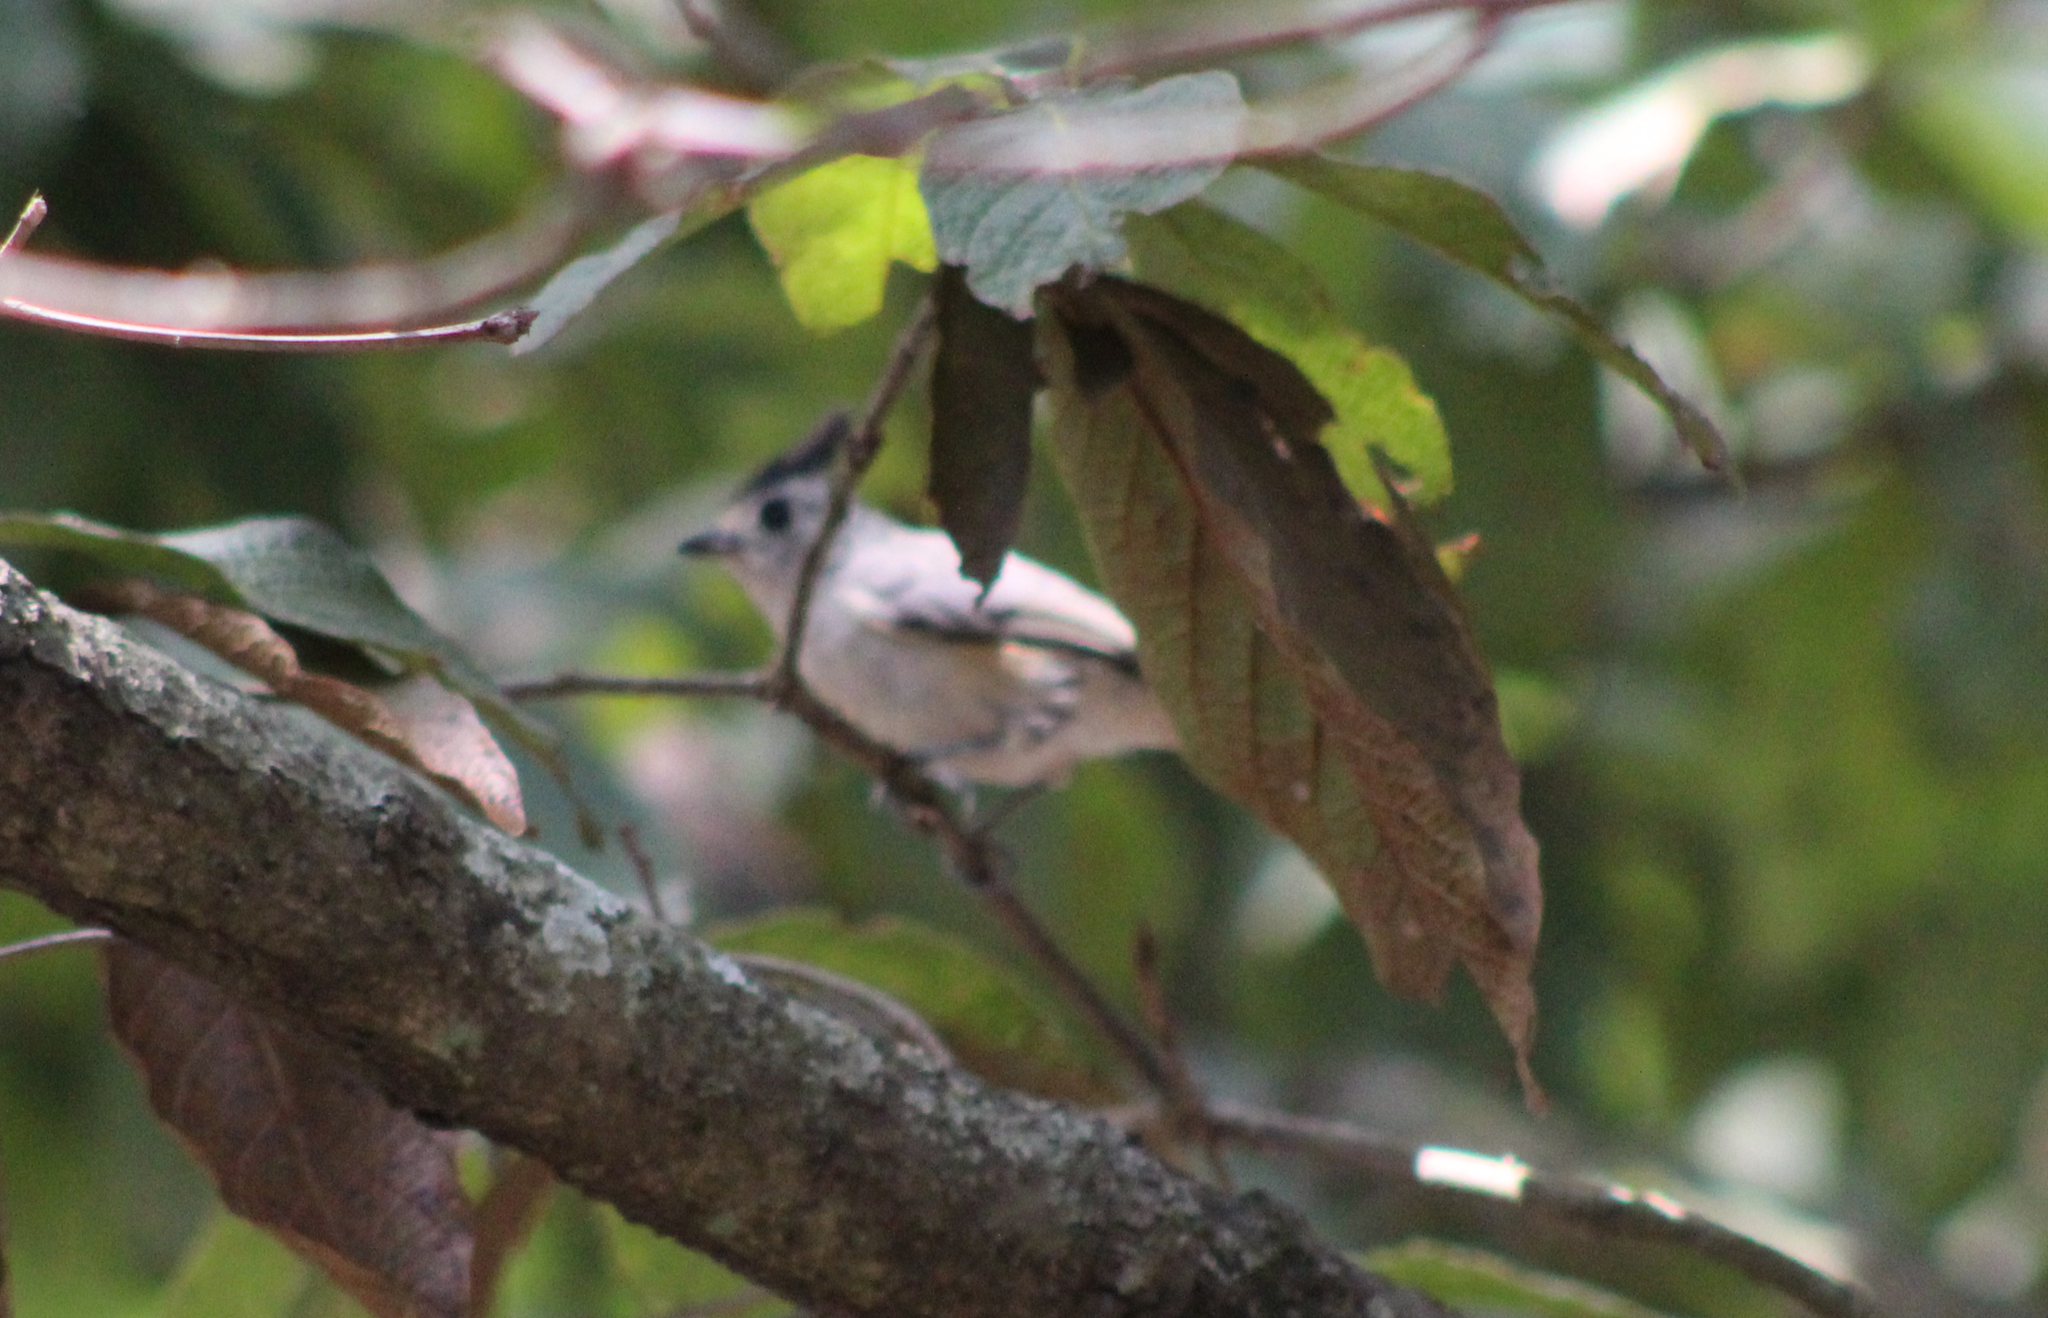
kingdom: Animalia
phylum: Chordata
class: Aves
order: Passeriformes
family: Paridae
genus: Baeolophus
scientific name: Baeolophus atricristatus
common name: Black-crested titmouse
